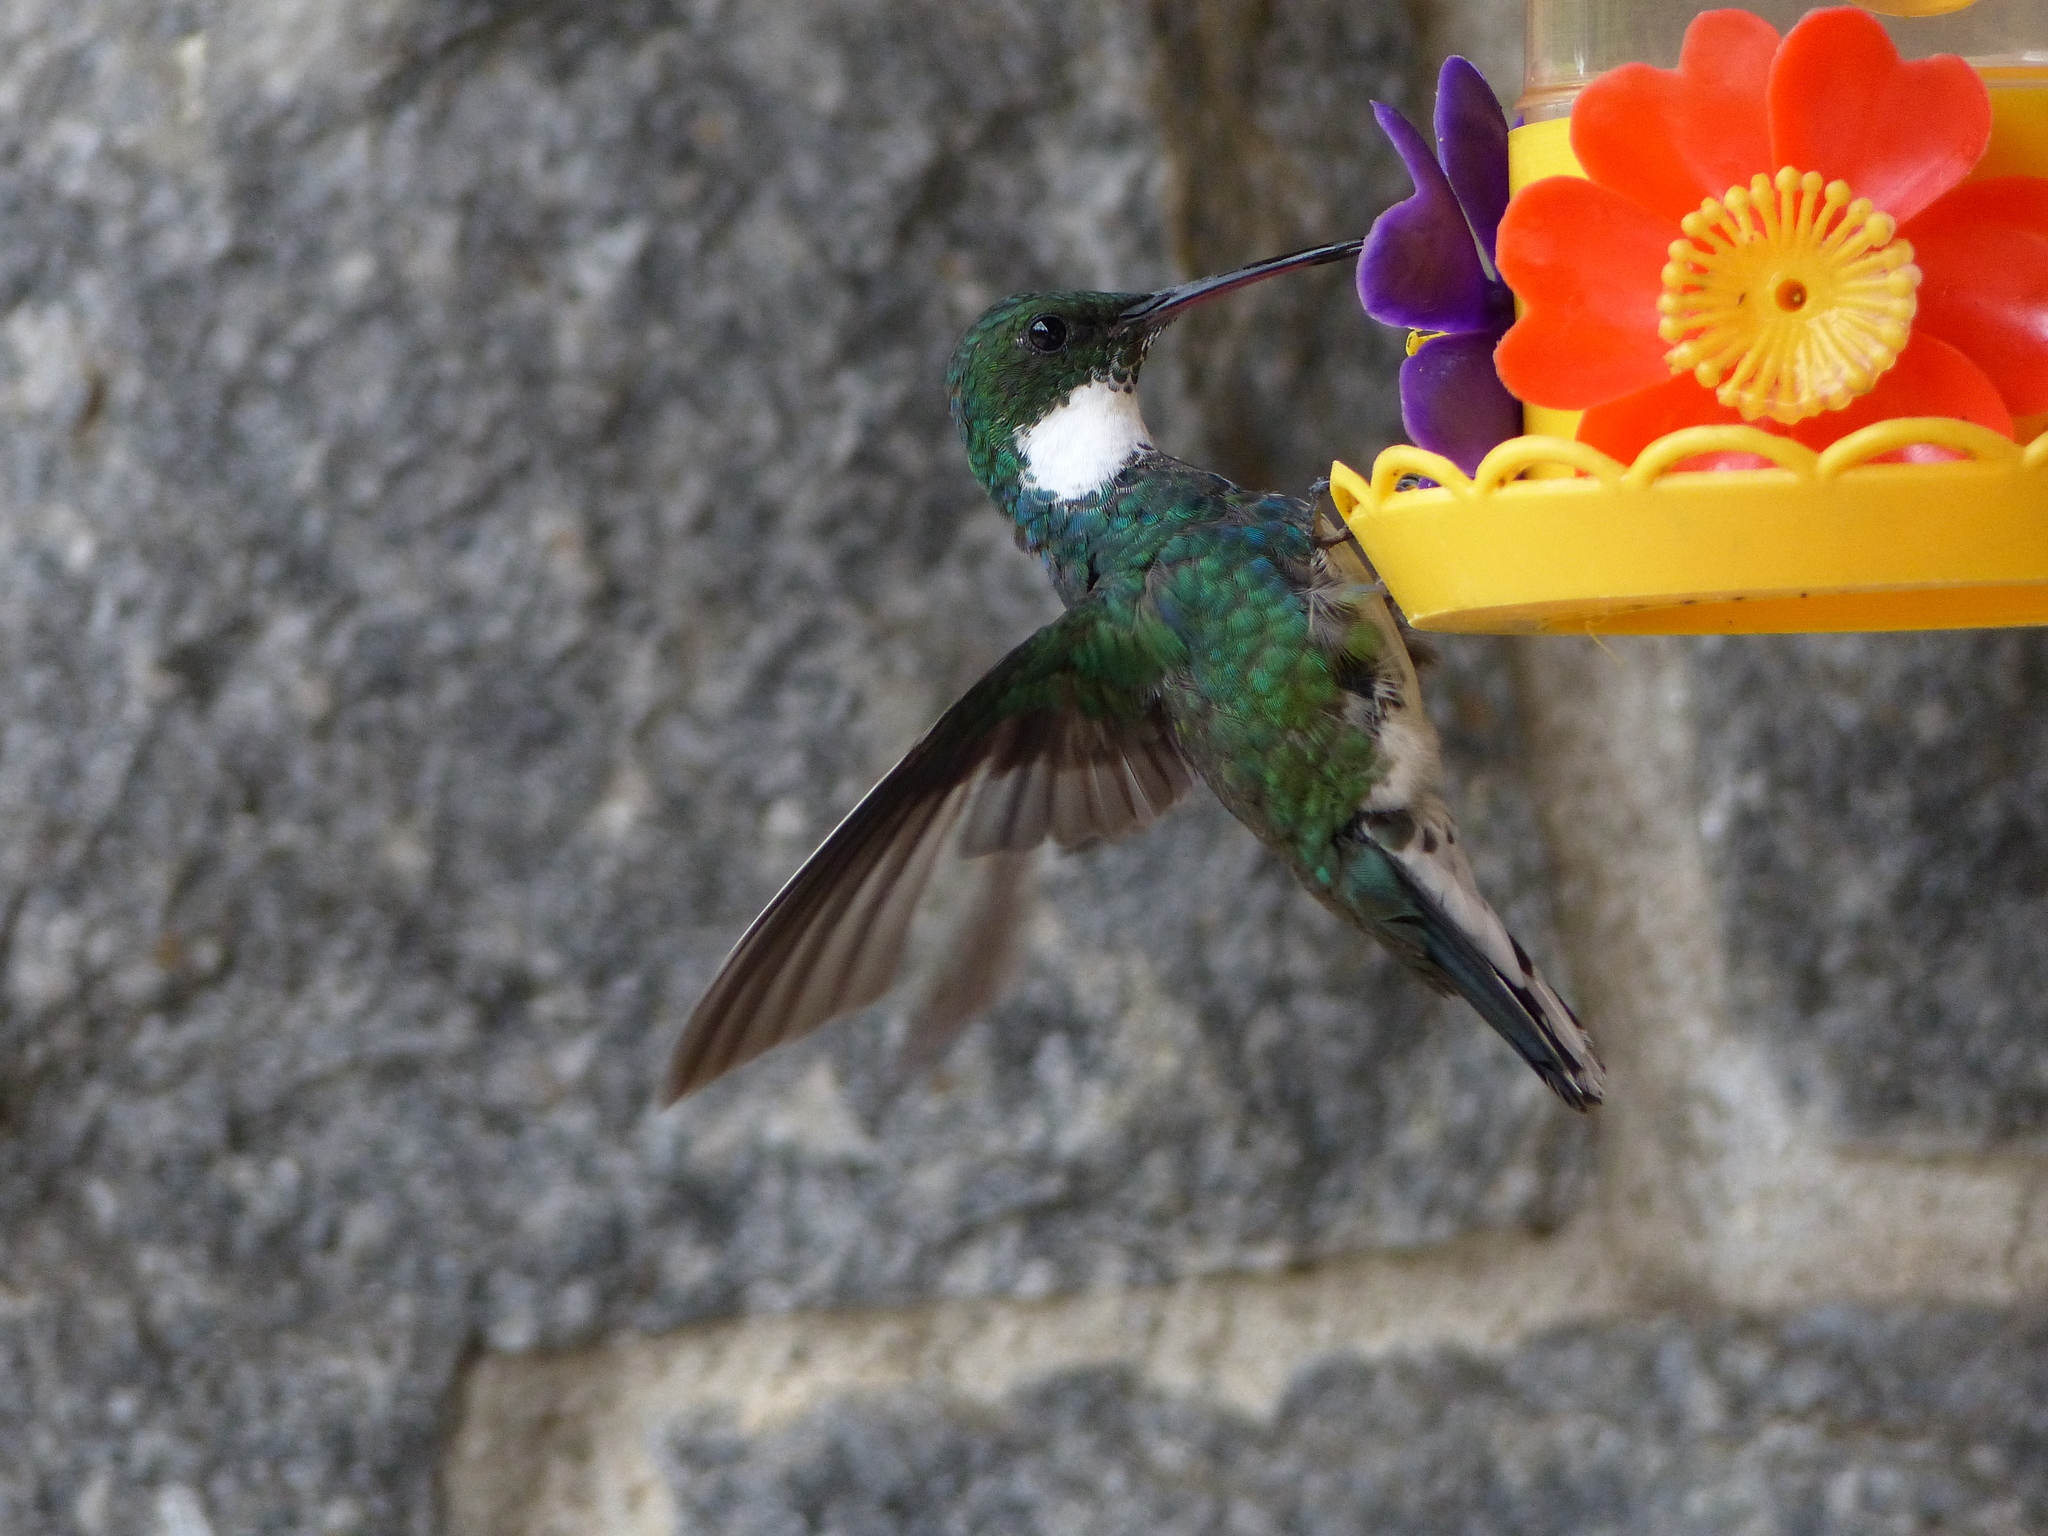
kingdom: Animalia
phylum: Chordata
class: Aves
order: Apodiformes
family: Trochilidae
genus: Leucochloris
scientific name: Leucochloris albicollis
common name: White-throated hummingbird
